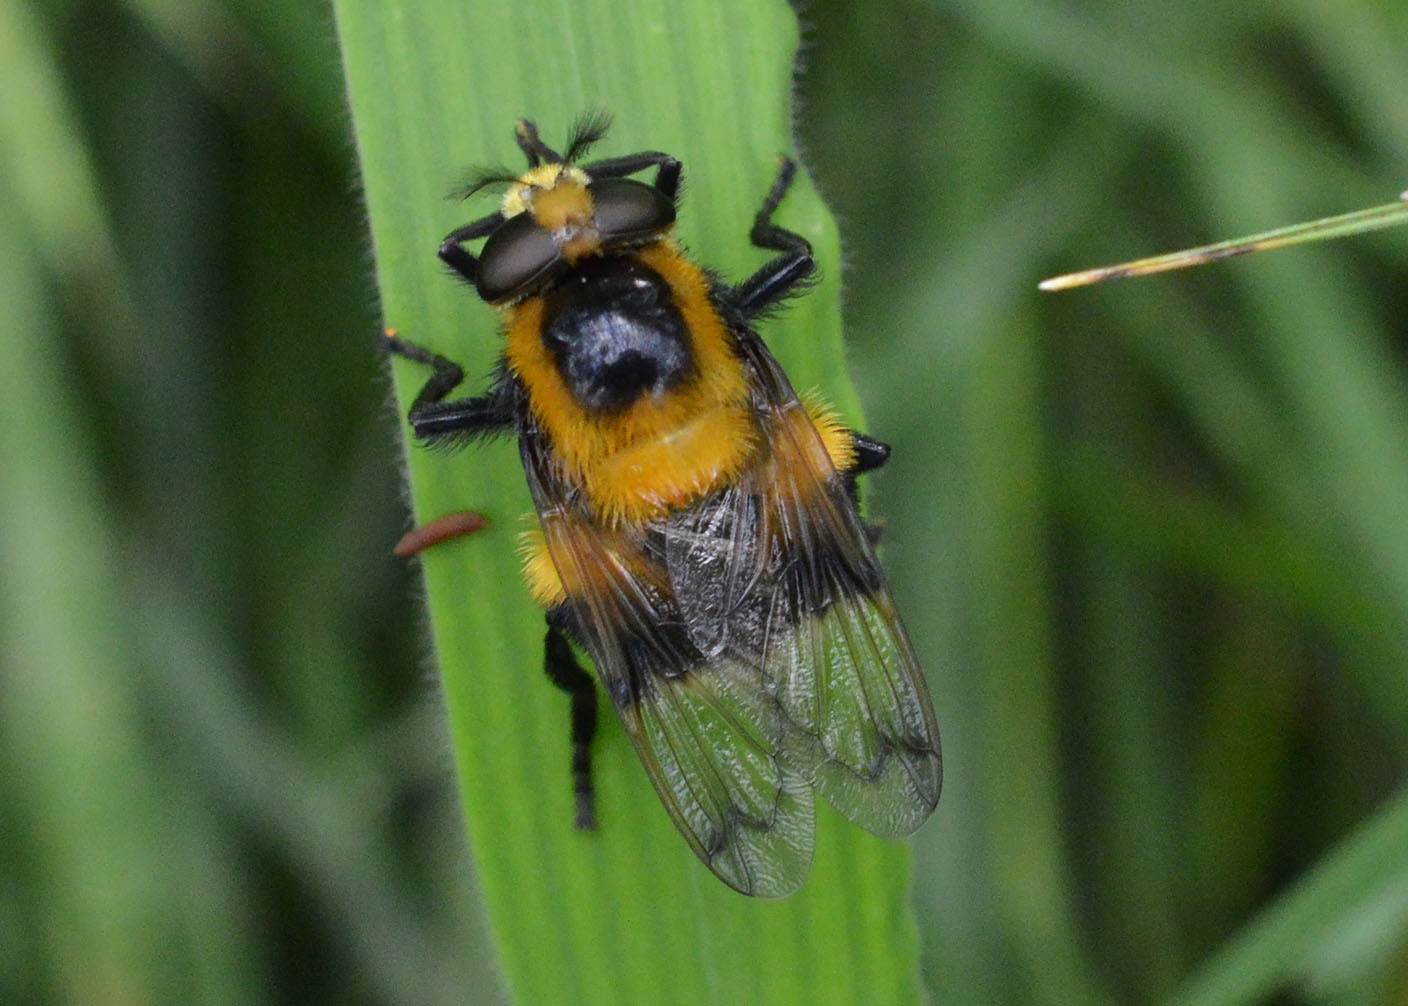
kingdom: Animalia
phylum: Arthropoda
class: Insecta
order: Diptera
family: Syrphidae
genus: Volucella
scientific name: Volucella bombylans
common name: Bumble bee hover fly
